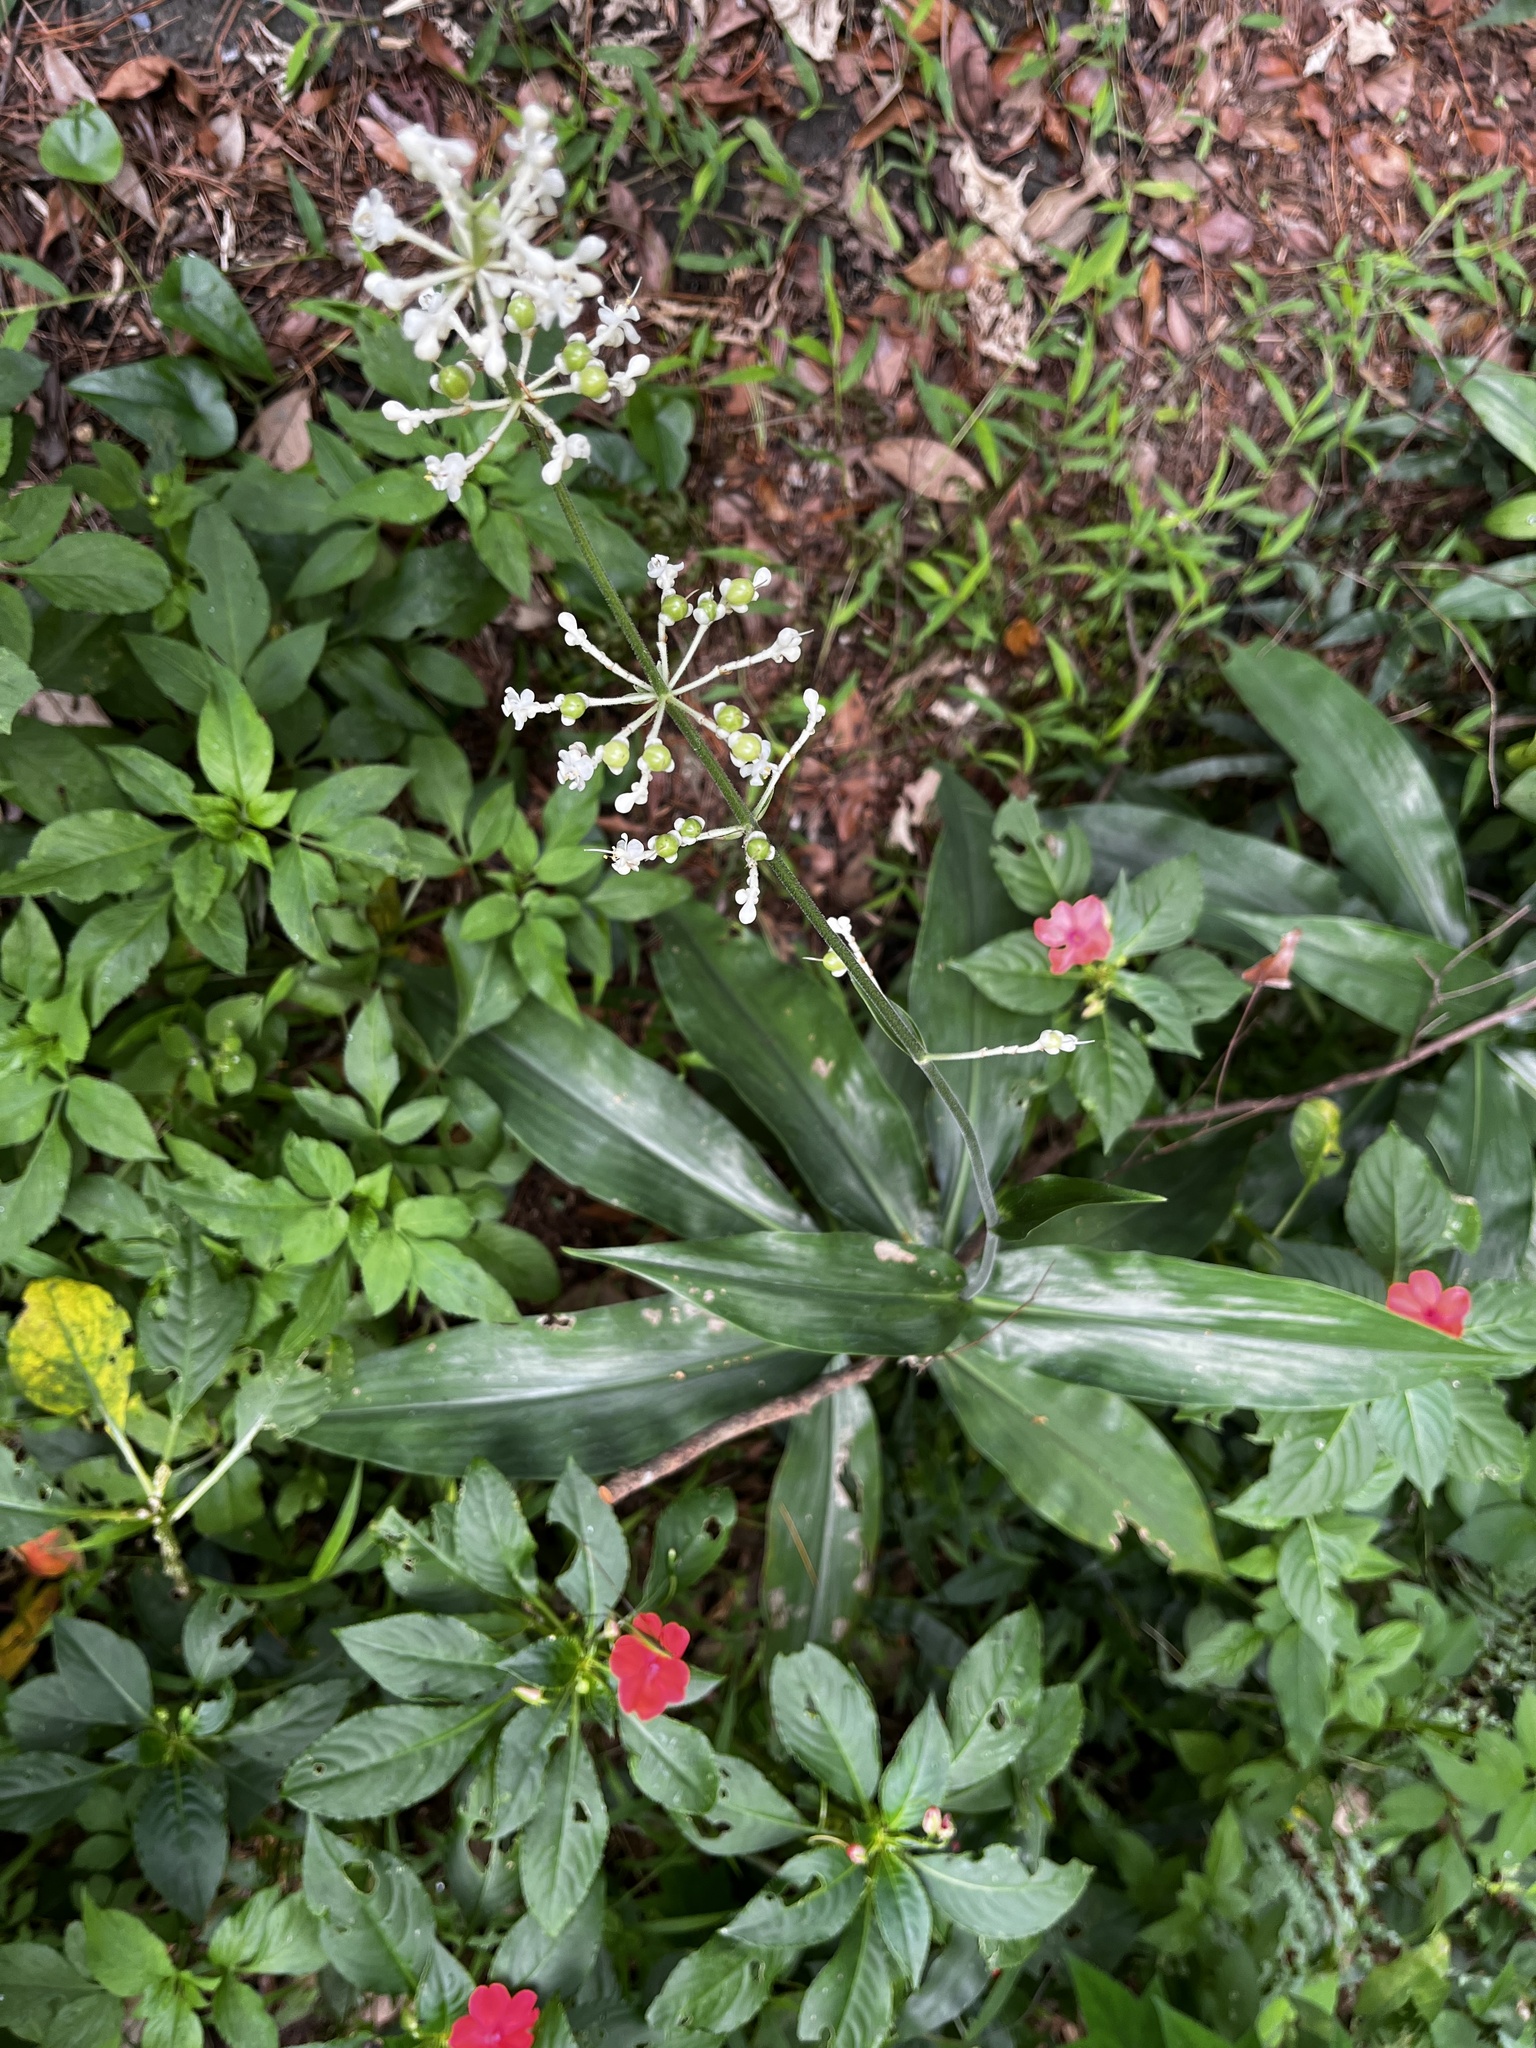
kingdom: Plantae
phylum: Tracheophyta
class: Liliopsida
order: Commelinales
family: Commelinaceae
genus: Pollia
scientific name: Pollia japonica
